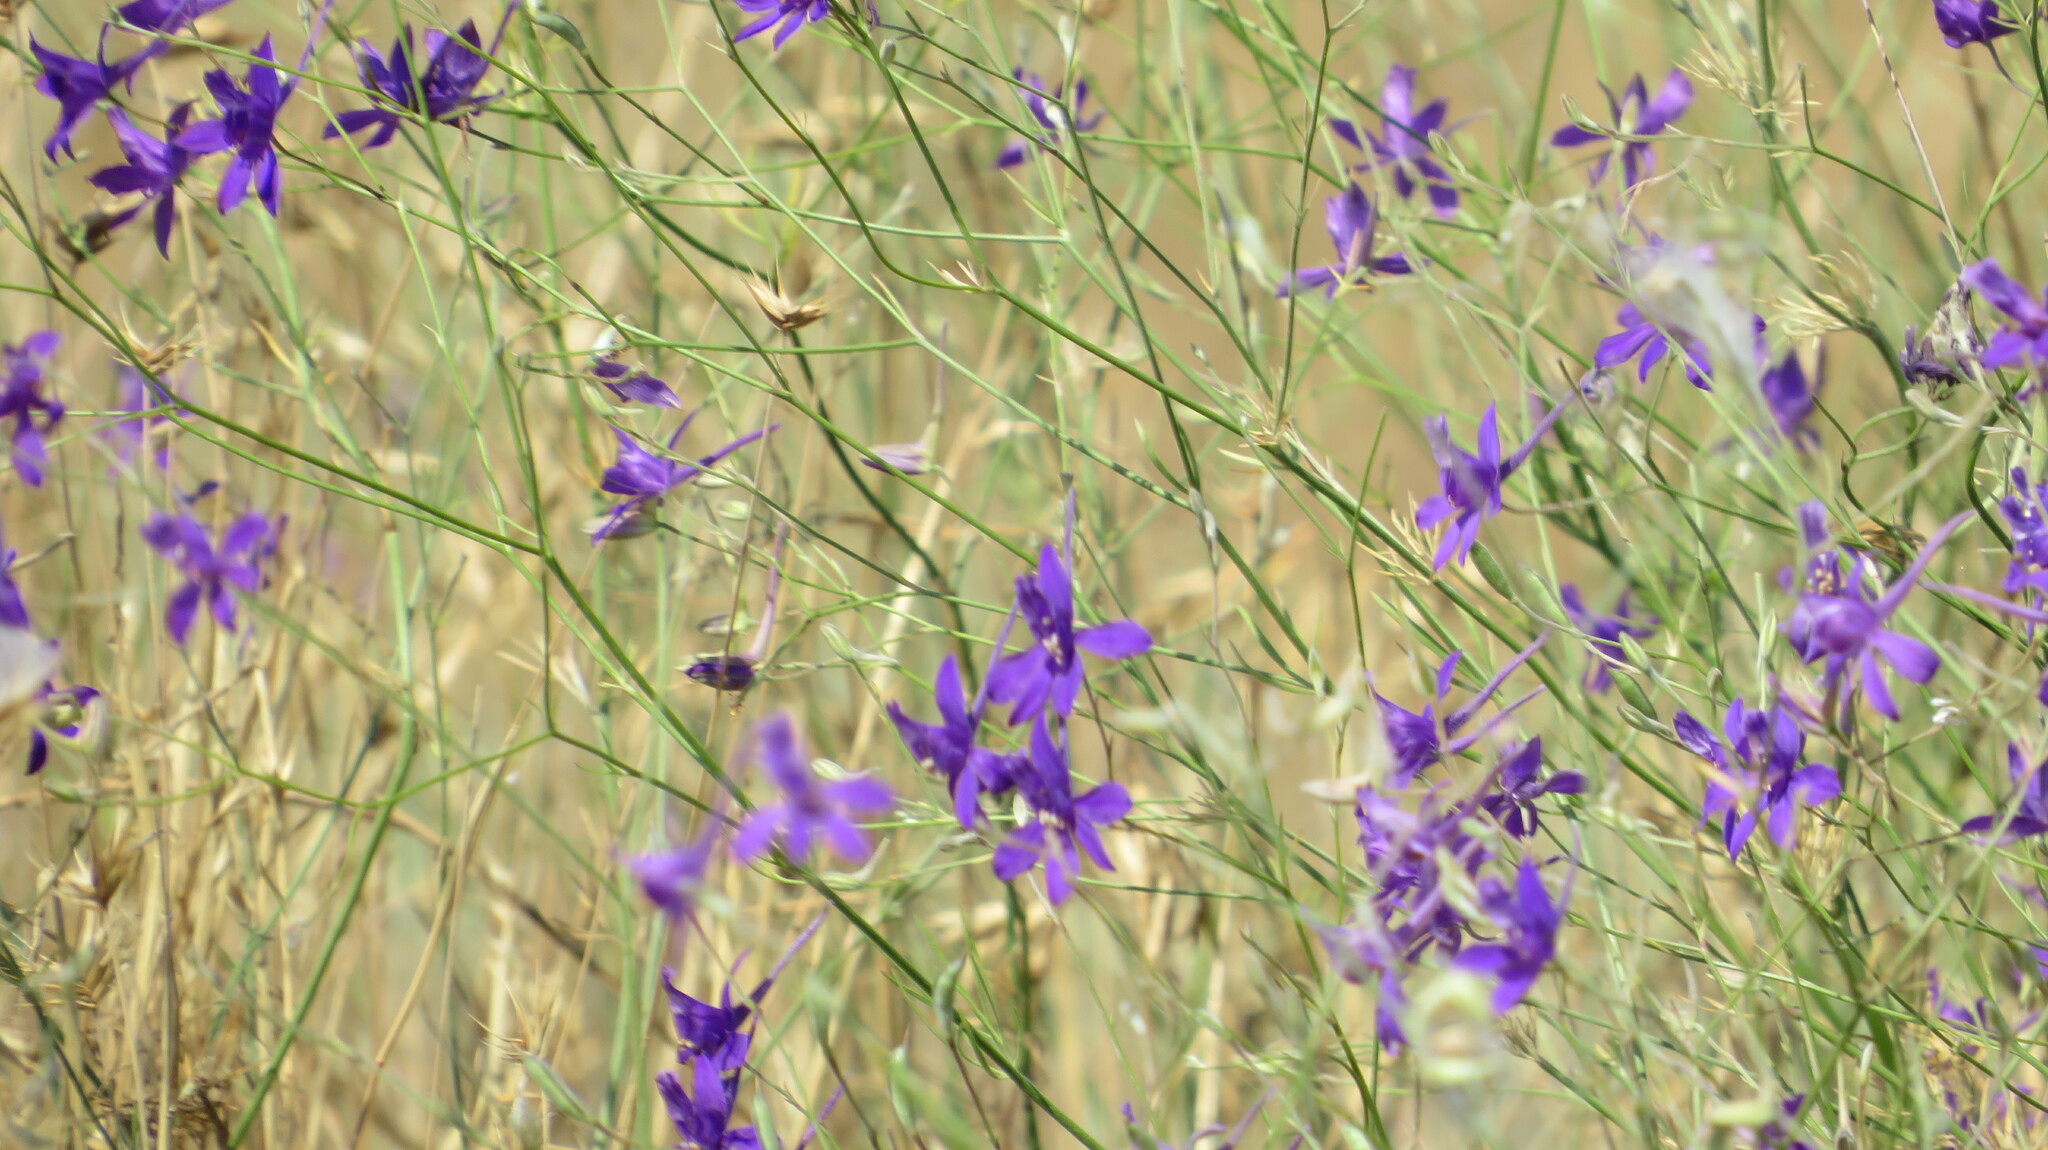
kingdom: Plantae
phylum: Tracheophyta
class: Magnoliopsida
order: Ranunculales
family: Ranunculaceae
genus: Delphinium
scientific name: Delphinium consolida
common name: Branching larkspur
